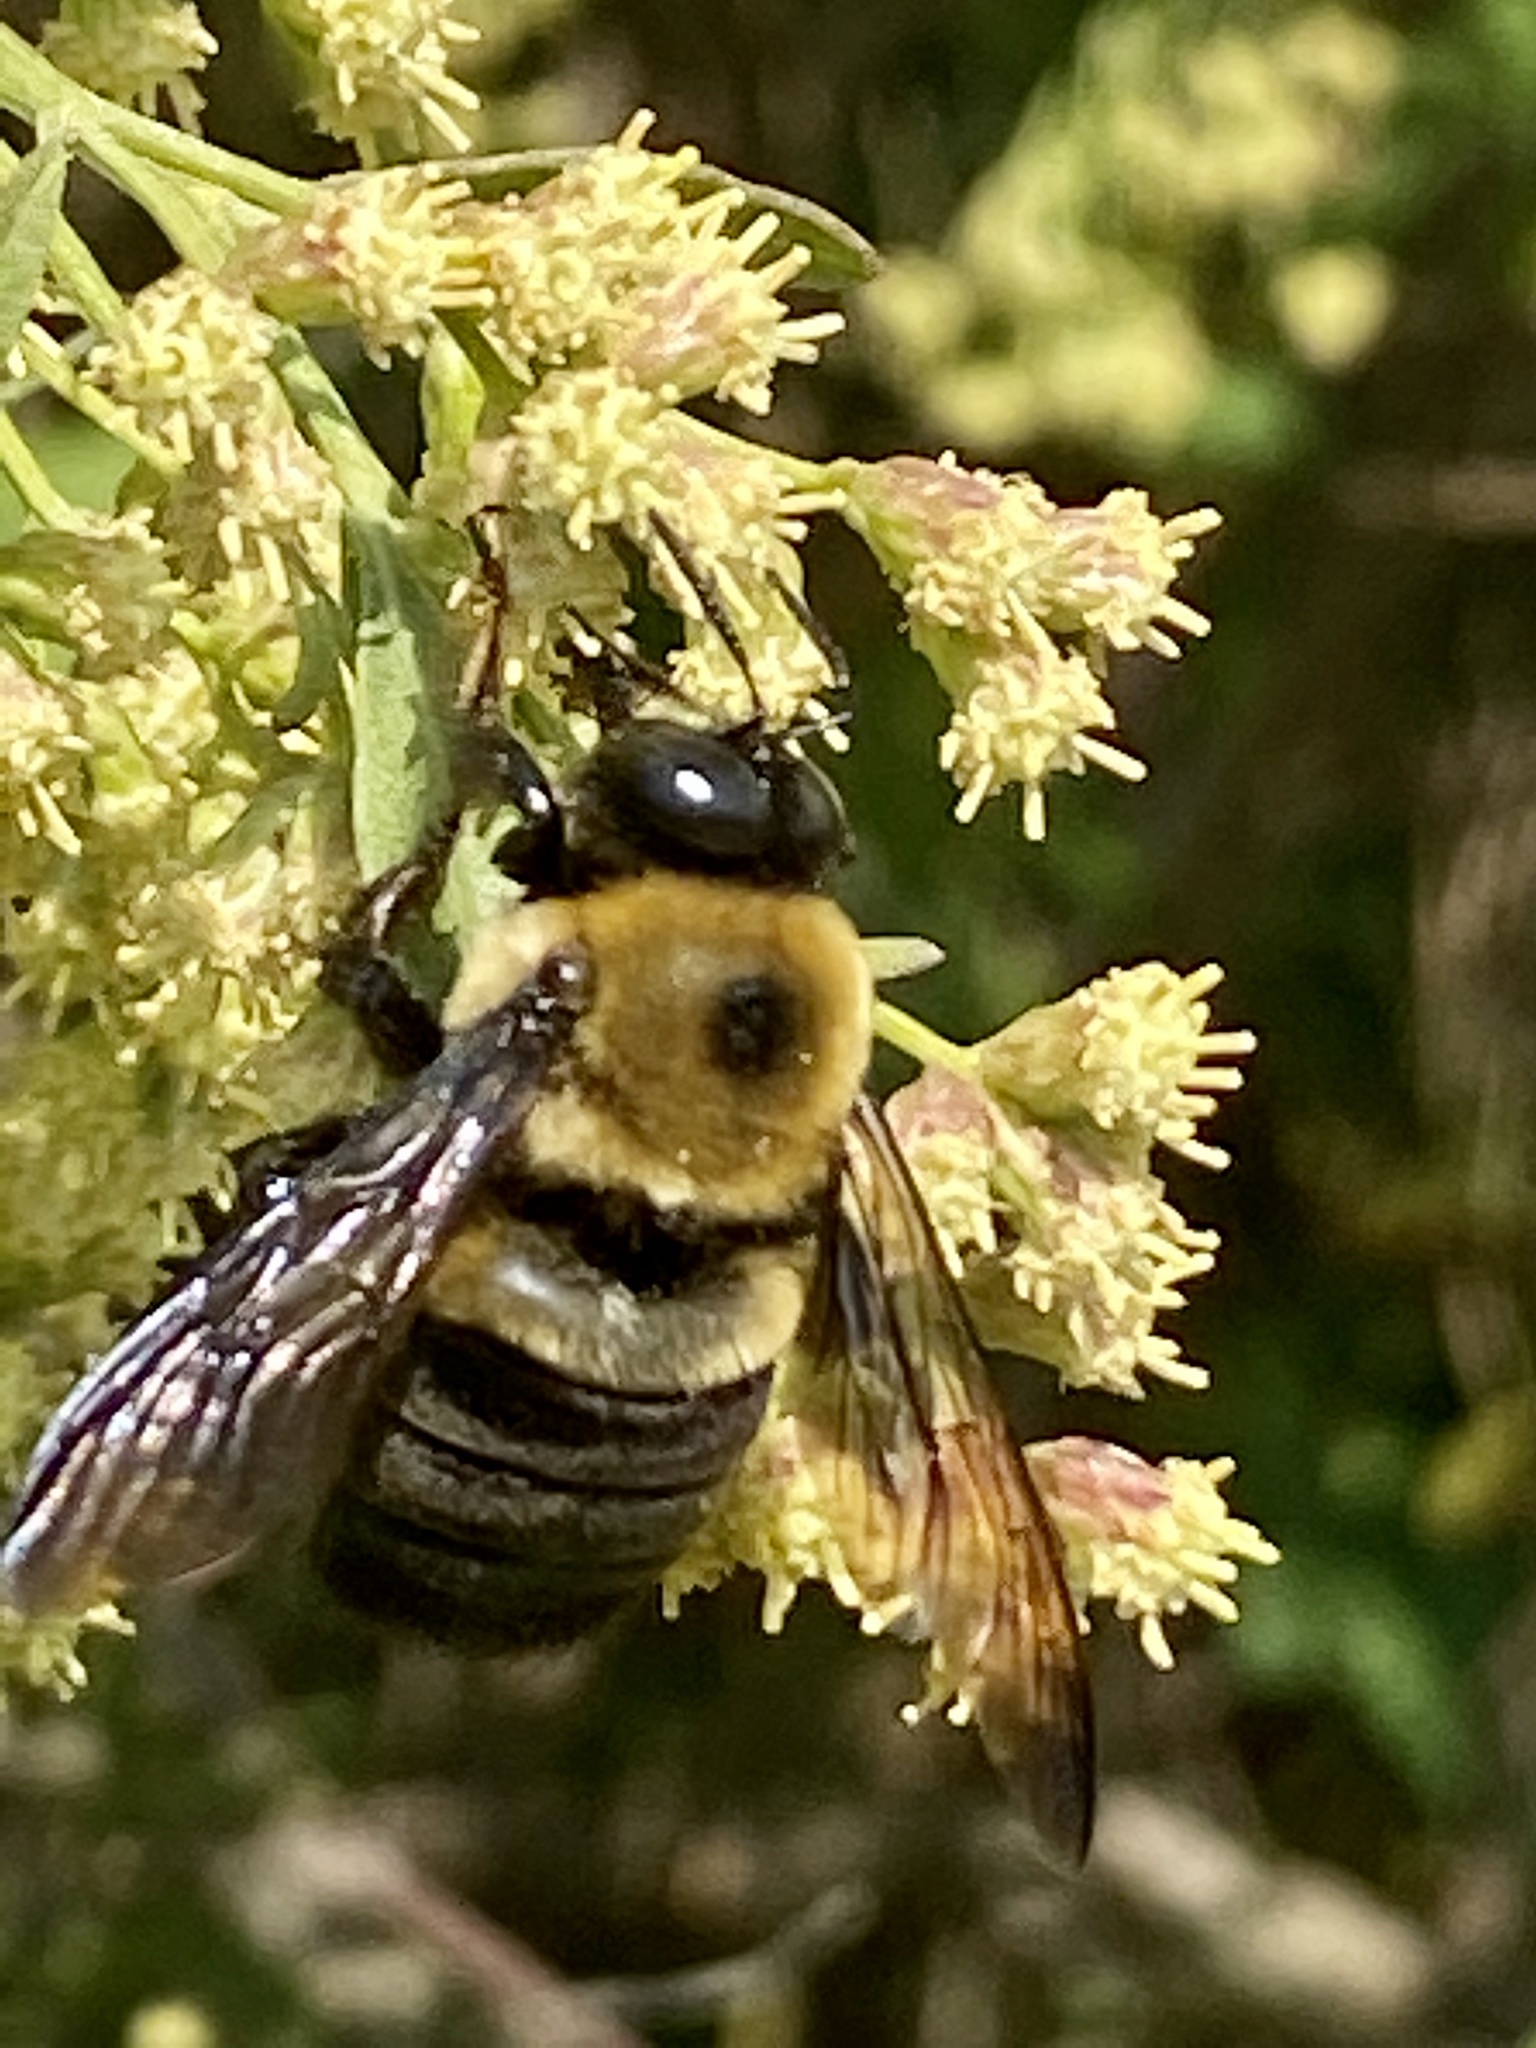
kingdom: Animalia
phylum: Arthropoda
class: Insecta
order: Hymenoptera
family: Apidae
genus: Xylocopa
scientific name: Xylocopa virginica
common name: Carpenter bee
